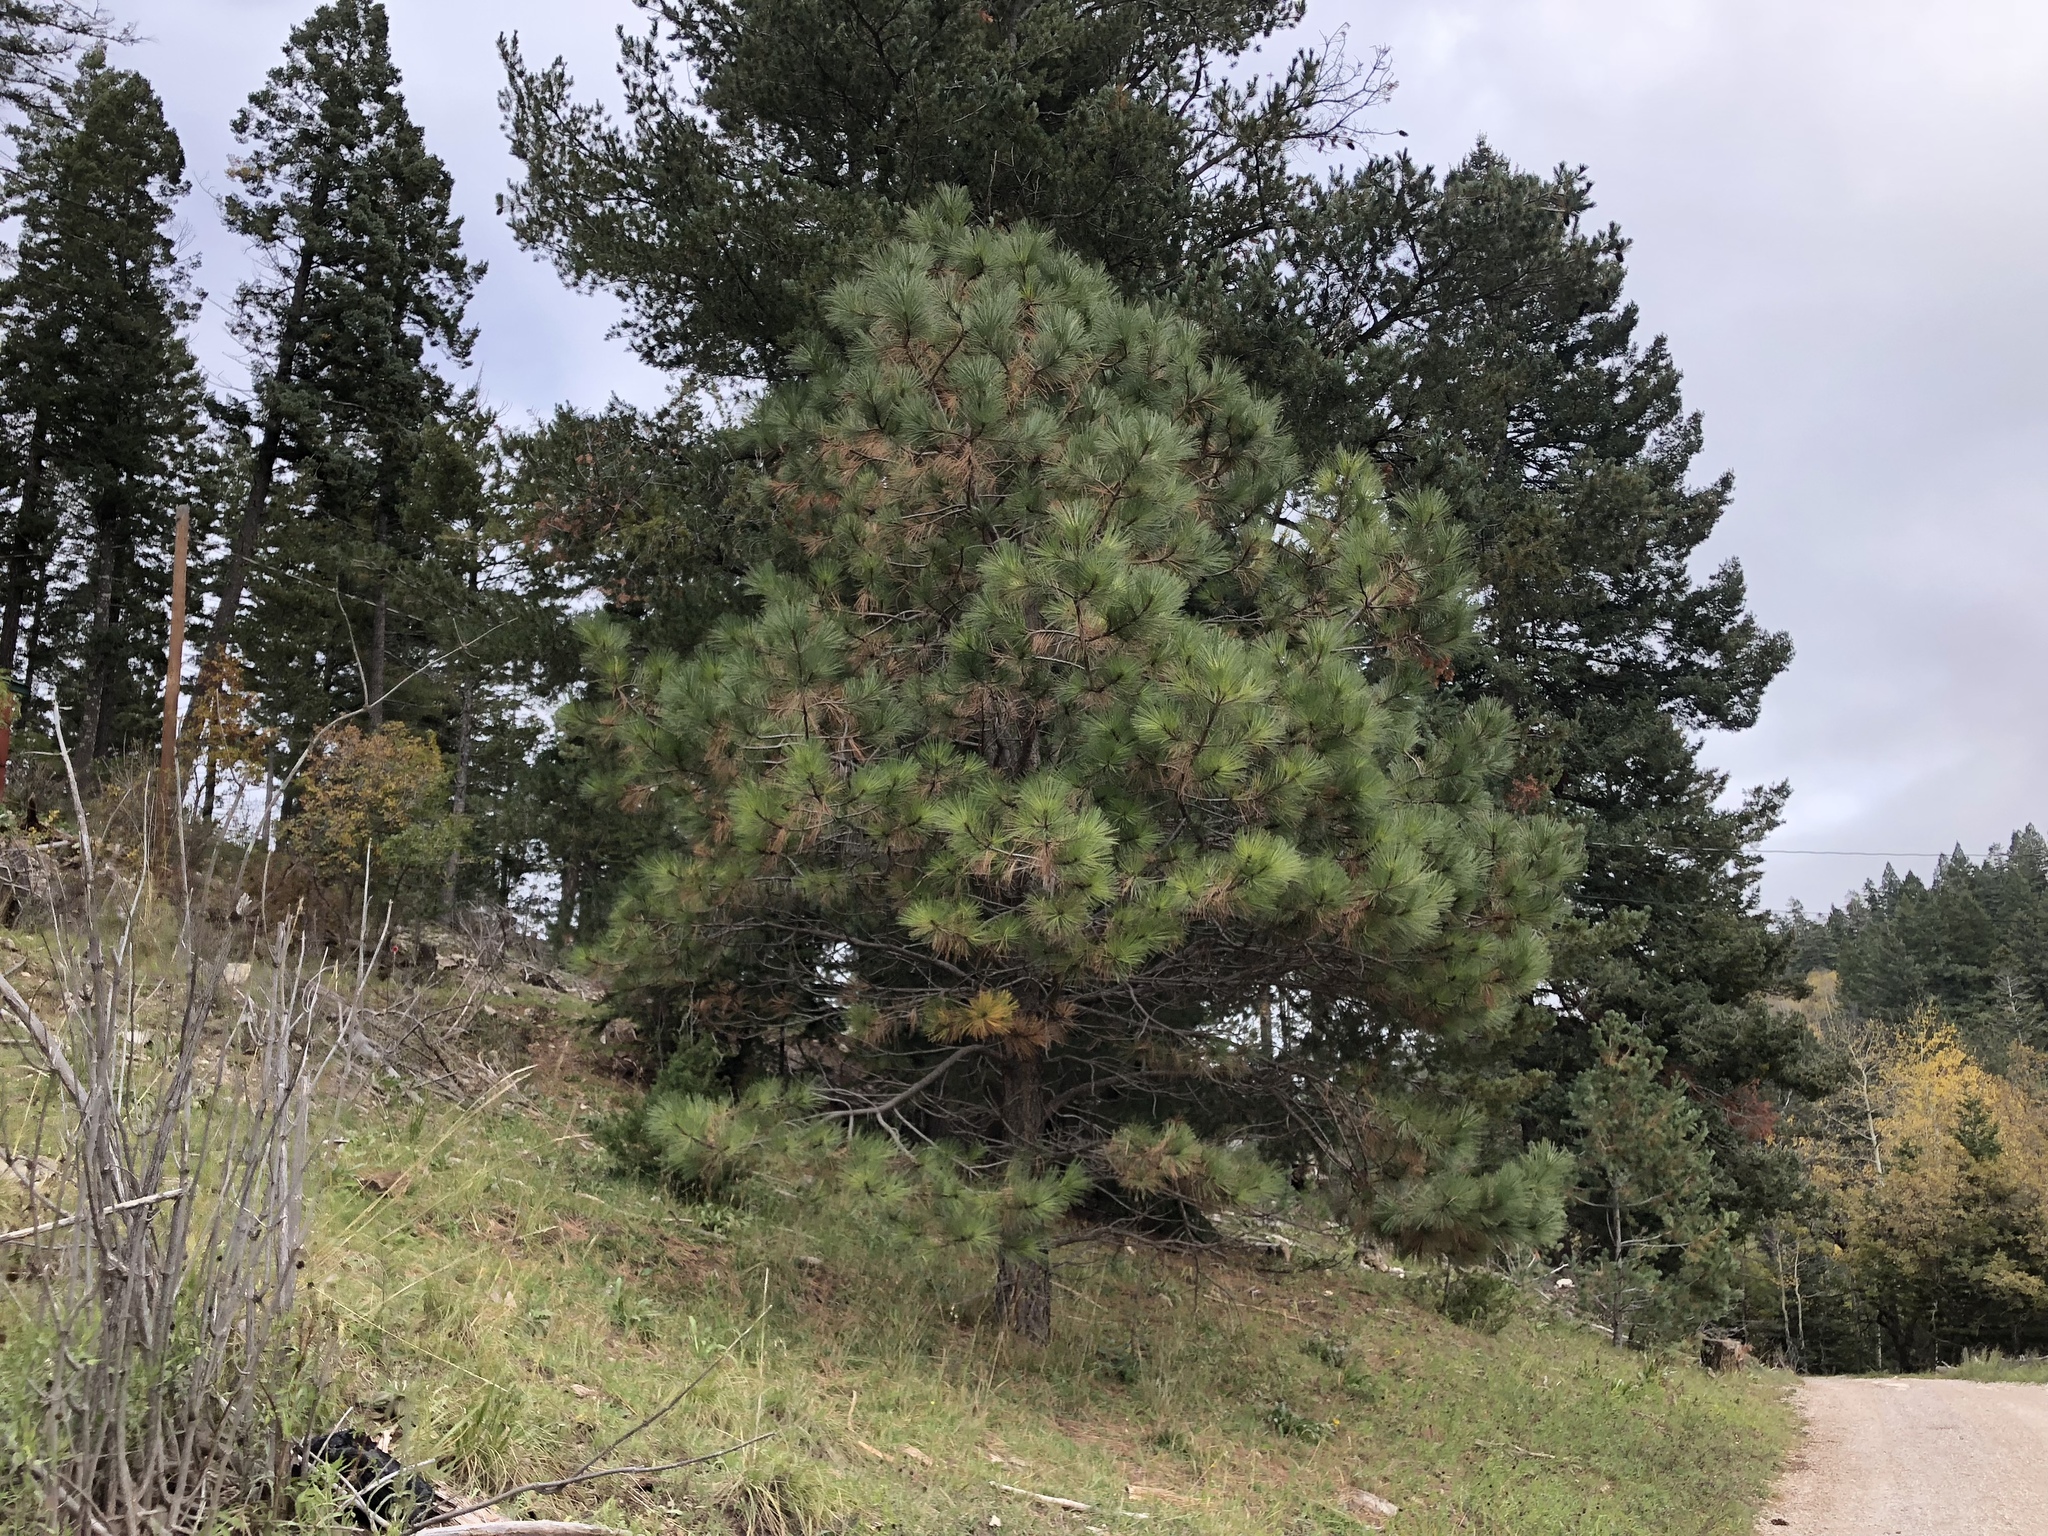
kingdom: Plantae
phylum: Tracheophyta
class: Pinopsida
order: Pinales
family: Pinaceae
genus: Pinus
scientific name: Pinus strobiformis
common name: Southwestern white pine
